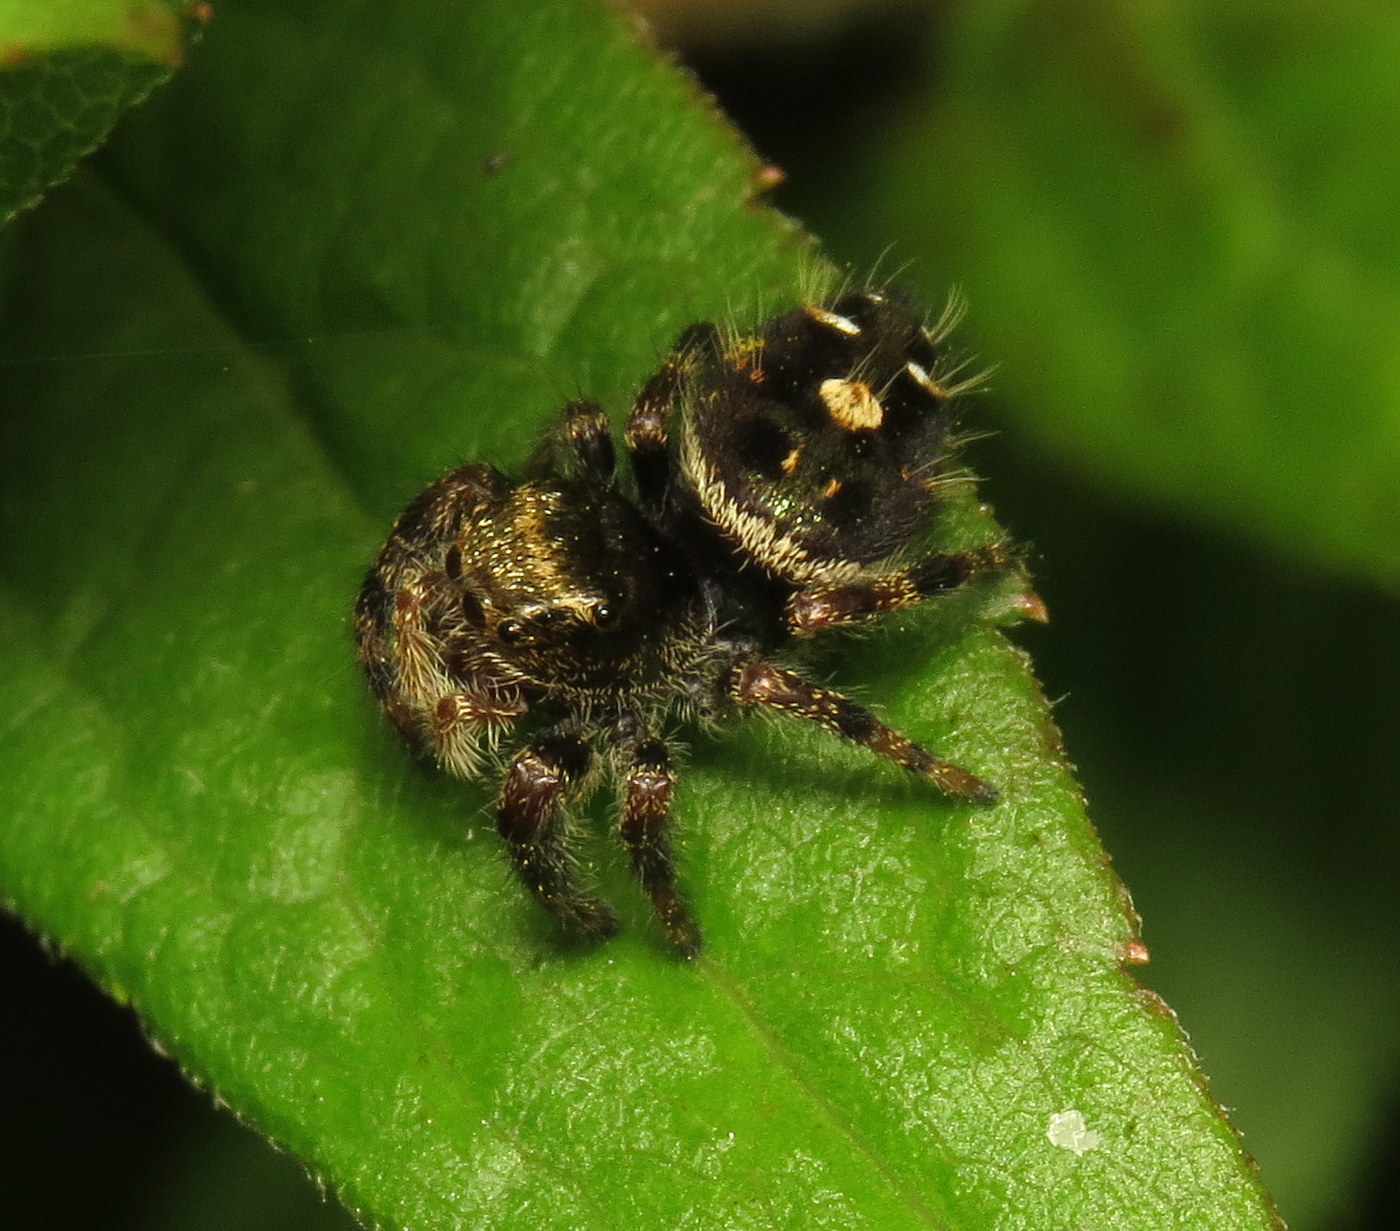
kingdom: Animalia
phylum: Arthropoda
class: Arachnida
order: Araneae
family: Salticidae
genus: Phidippus
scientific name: Phidippus audax
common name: Bold jumper
